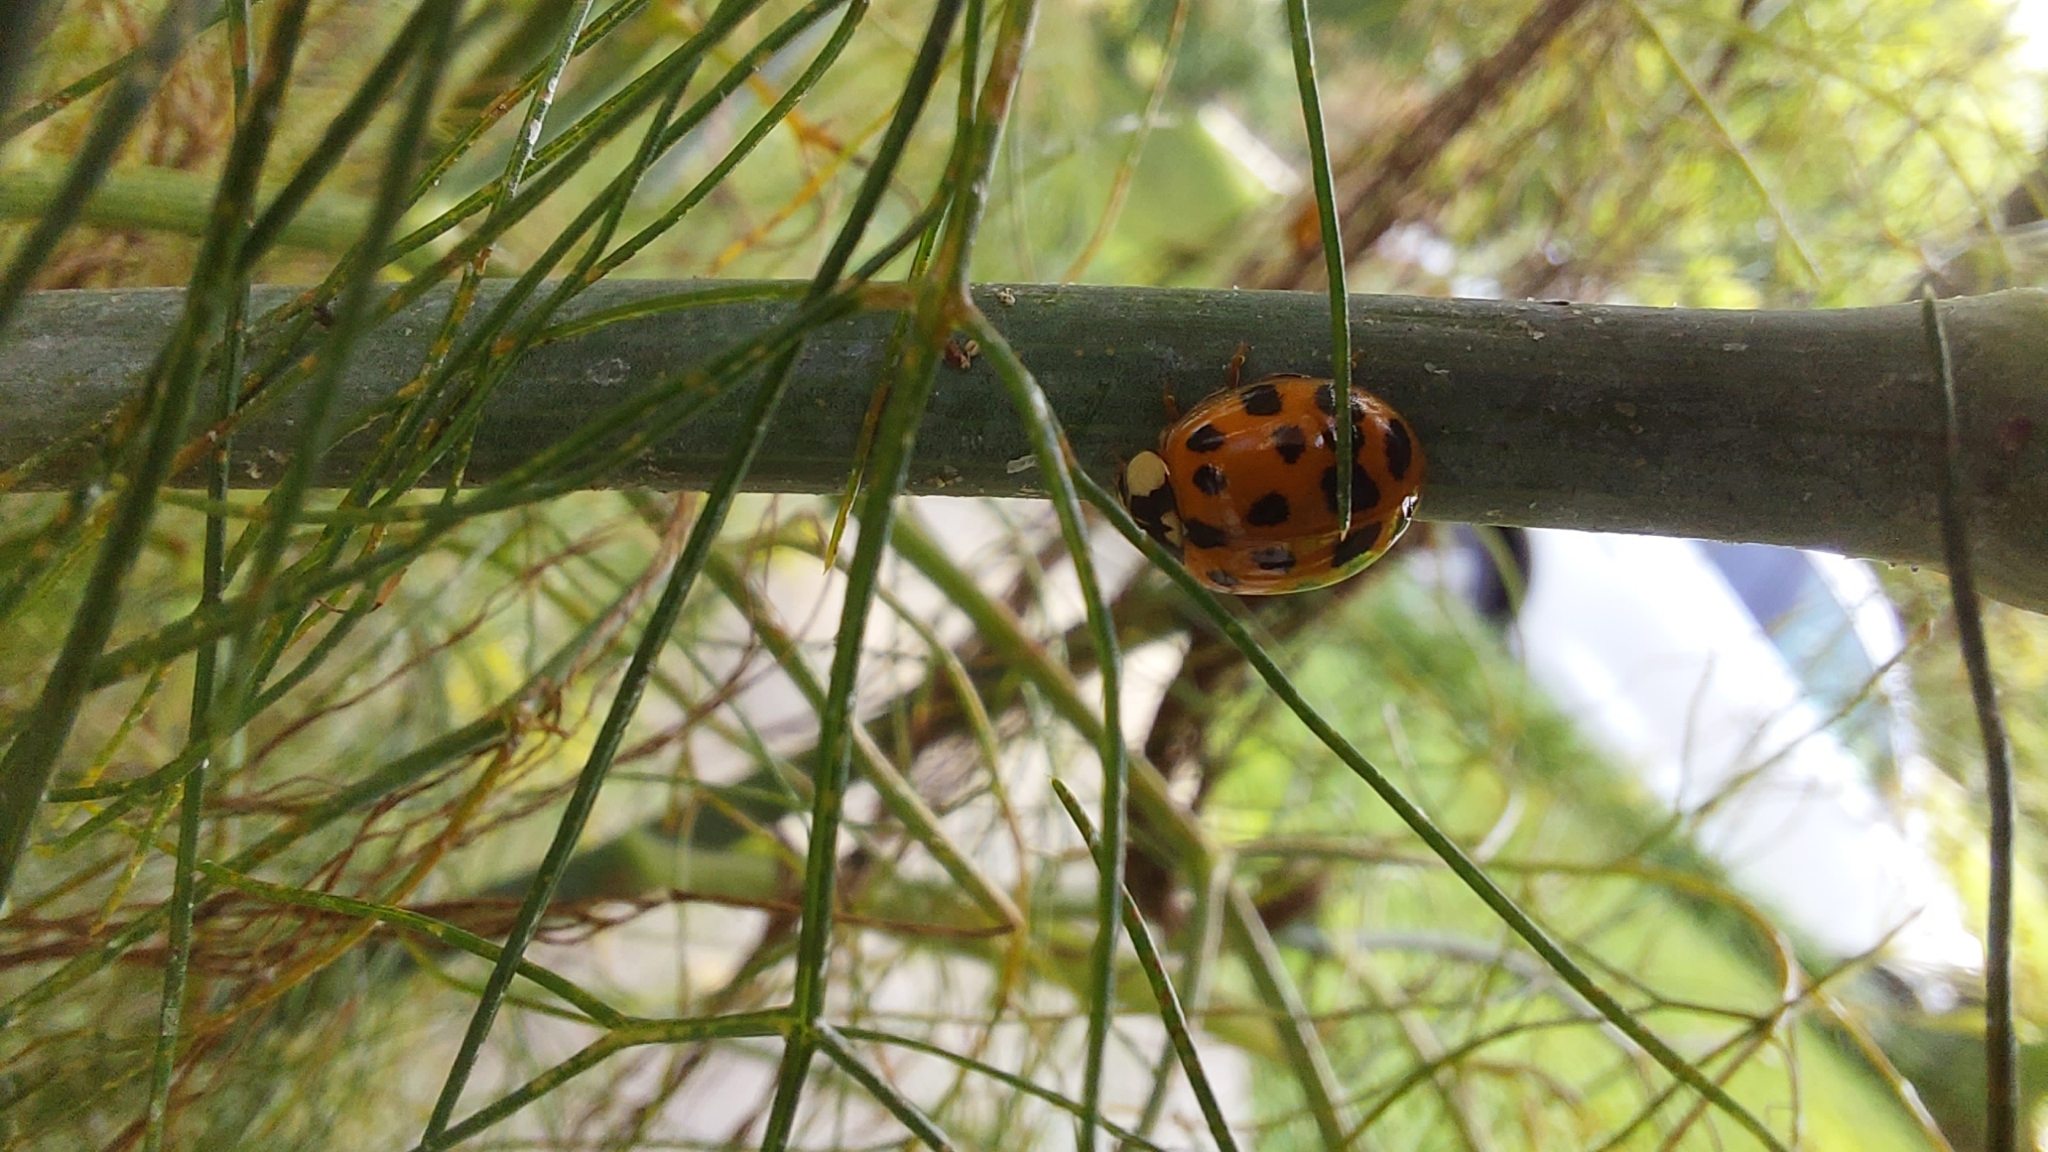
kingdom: Animalia
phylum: Arthropoda
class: Insecta
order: Coleoptera
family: Coccinellidae
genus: Harmonia
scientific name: Harmonia axyridis
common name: Harlequin ladybird
